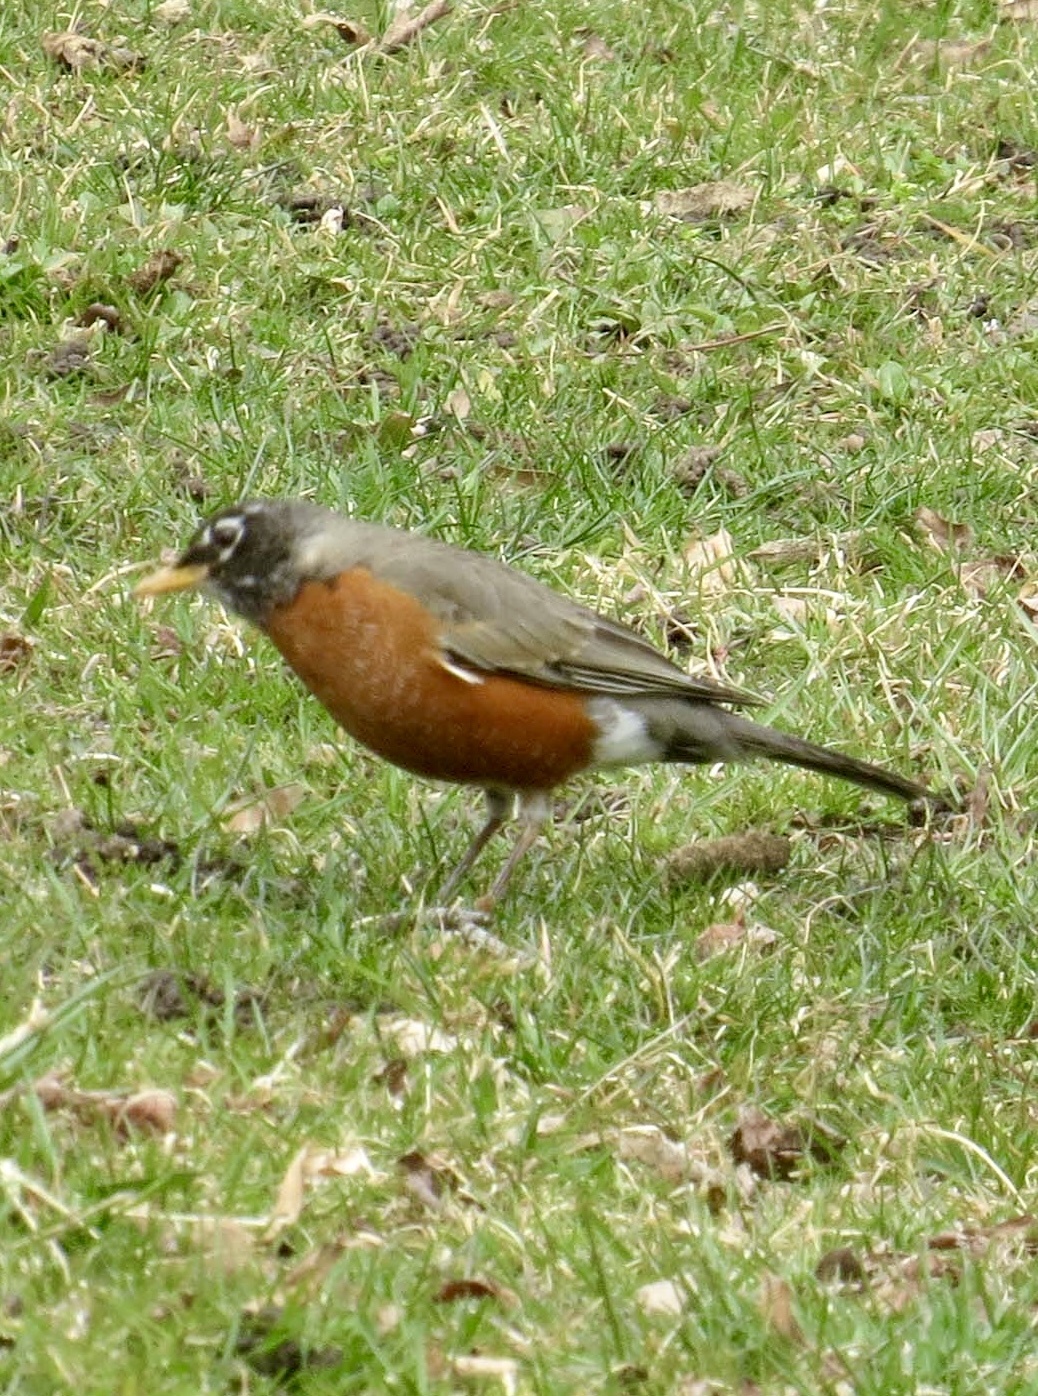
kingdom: Animalia
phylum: Chordata
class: Aves
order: Passeriformes
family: Turdidae
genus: Turdus
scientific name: Turdus migratorius
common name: American robin
